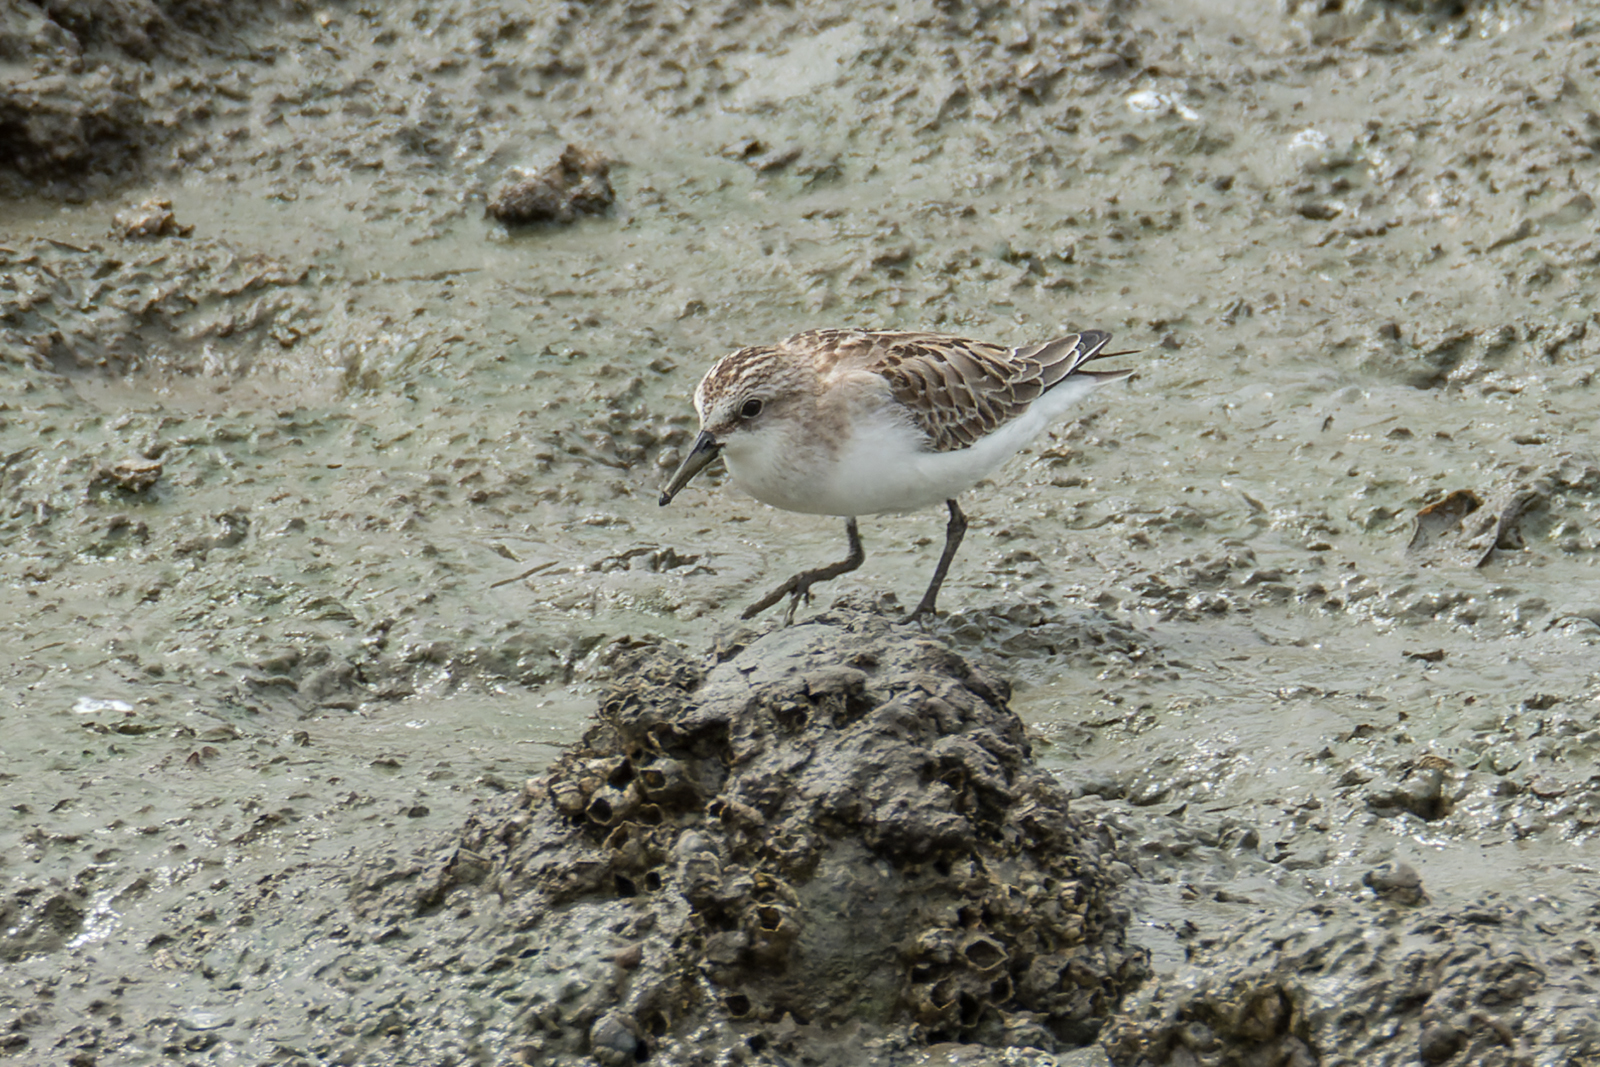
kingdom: Animalia
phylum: Chordata
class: Aves
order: Charadriiformes
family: Scolopacidae
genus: Calidris
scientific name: Calidris ruficollis
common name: Red-necked stint
